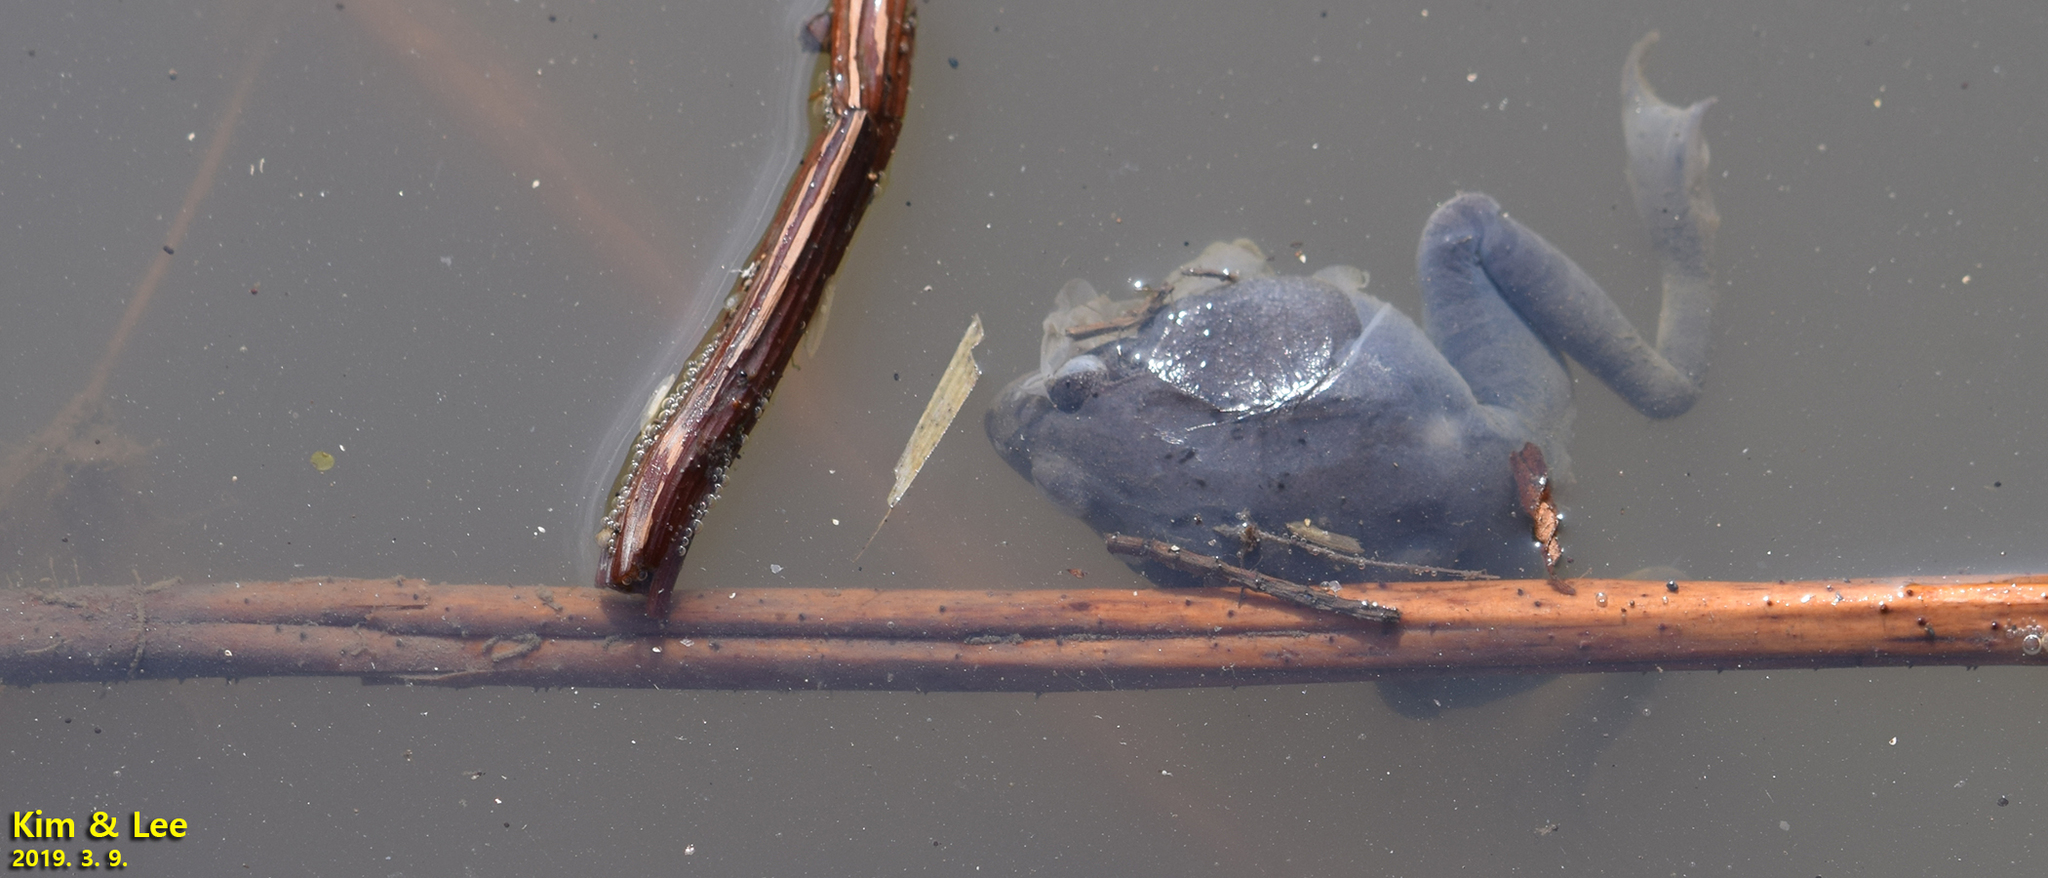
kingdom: Animalia
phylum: Chordata
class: Amphibia
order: Anura
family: Ranidae
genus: Rana
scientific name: Rana uenoi
